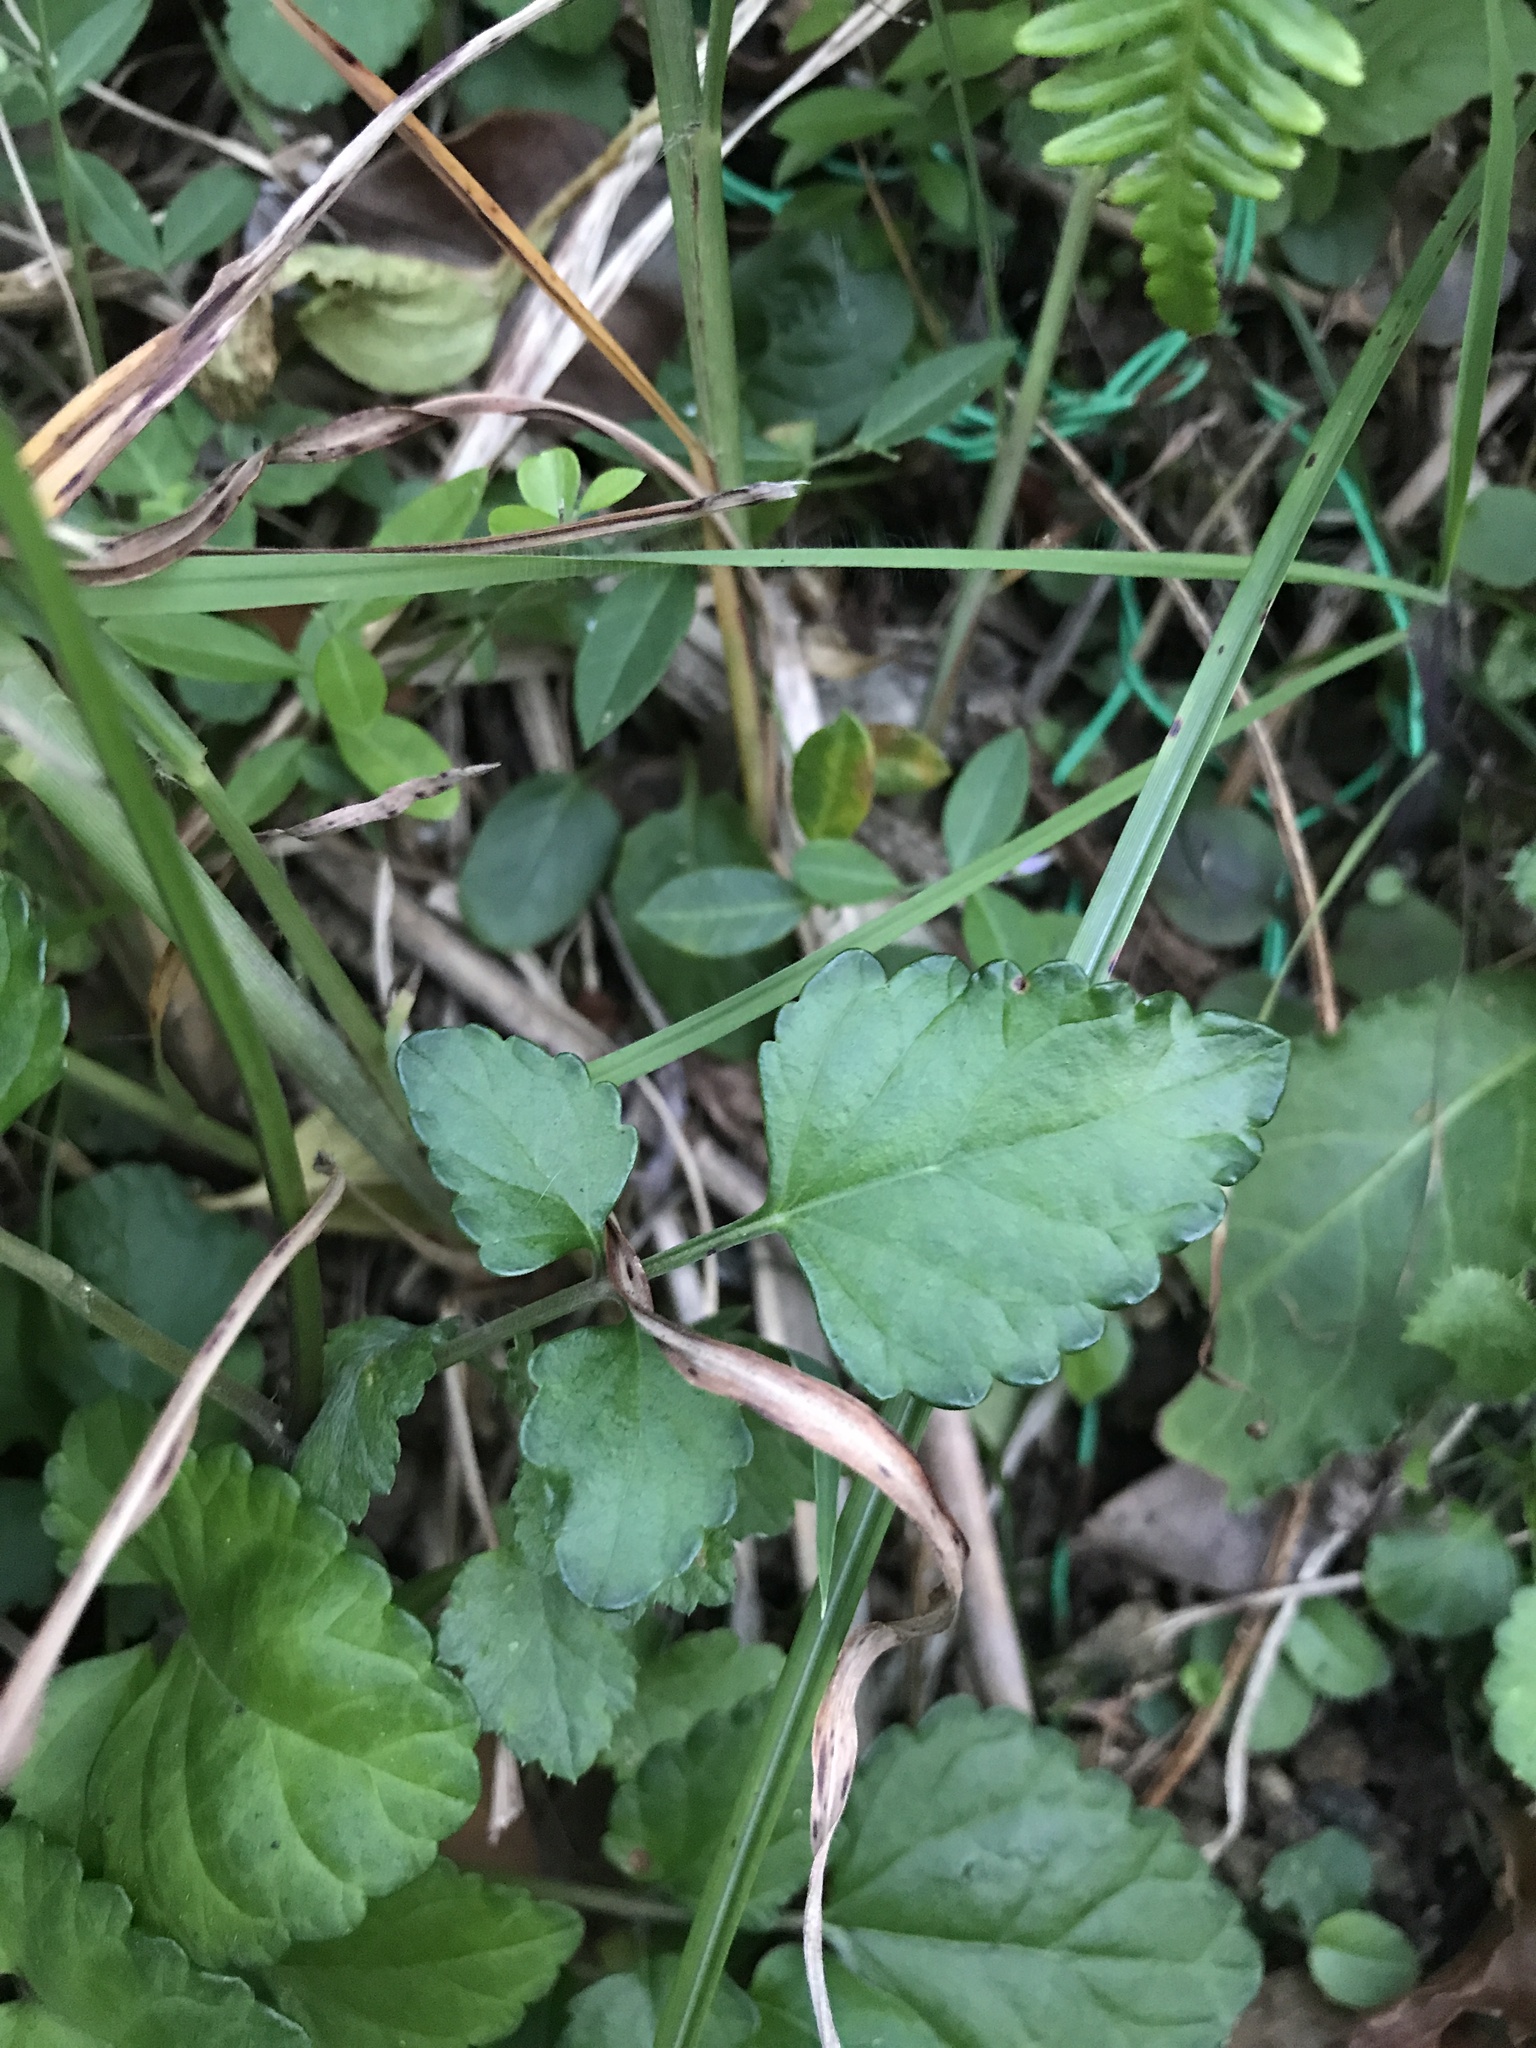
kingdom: Plantae
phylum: Tracheophyta
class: Magnoliopsida
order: Lamiales
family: Lamiaceae
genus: Salvia
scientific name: Salvia japonica
